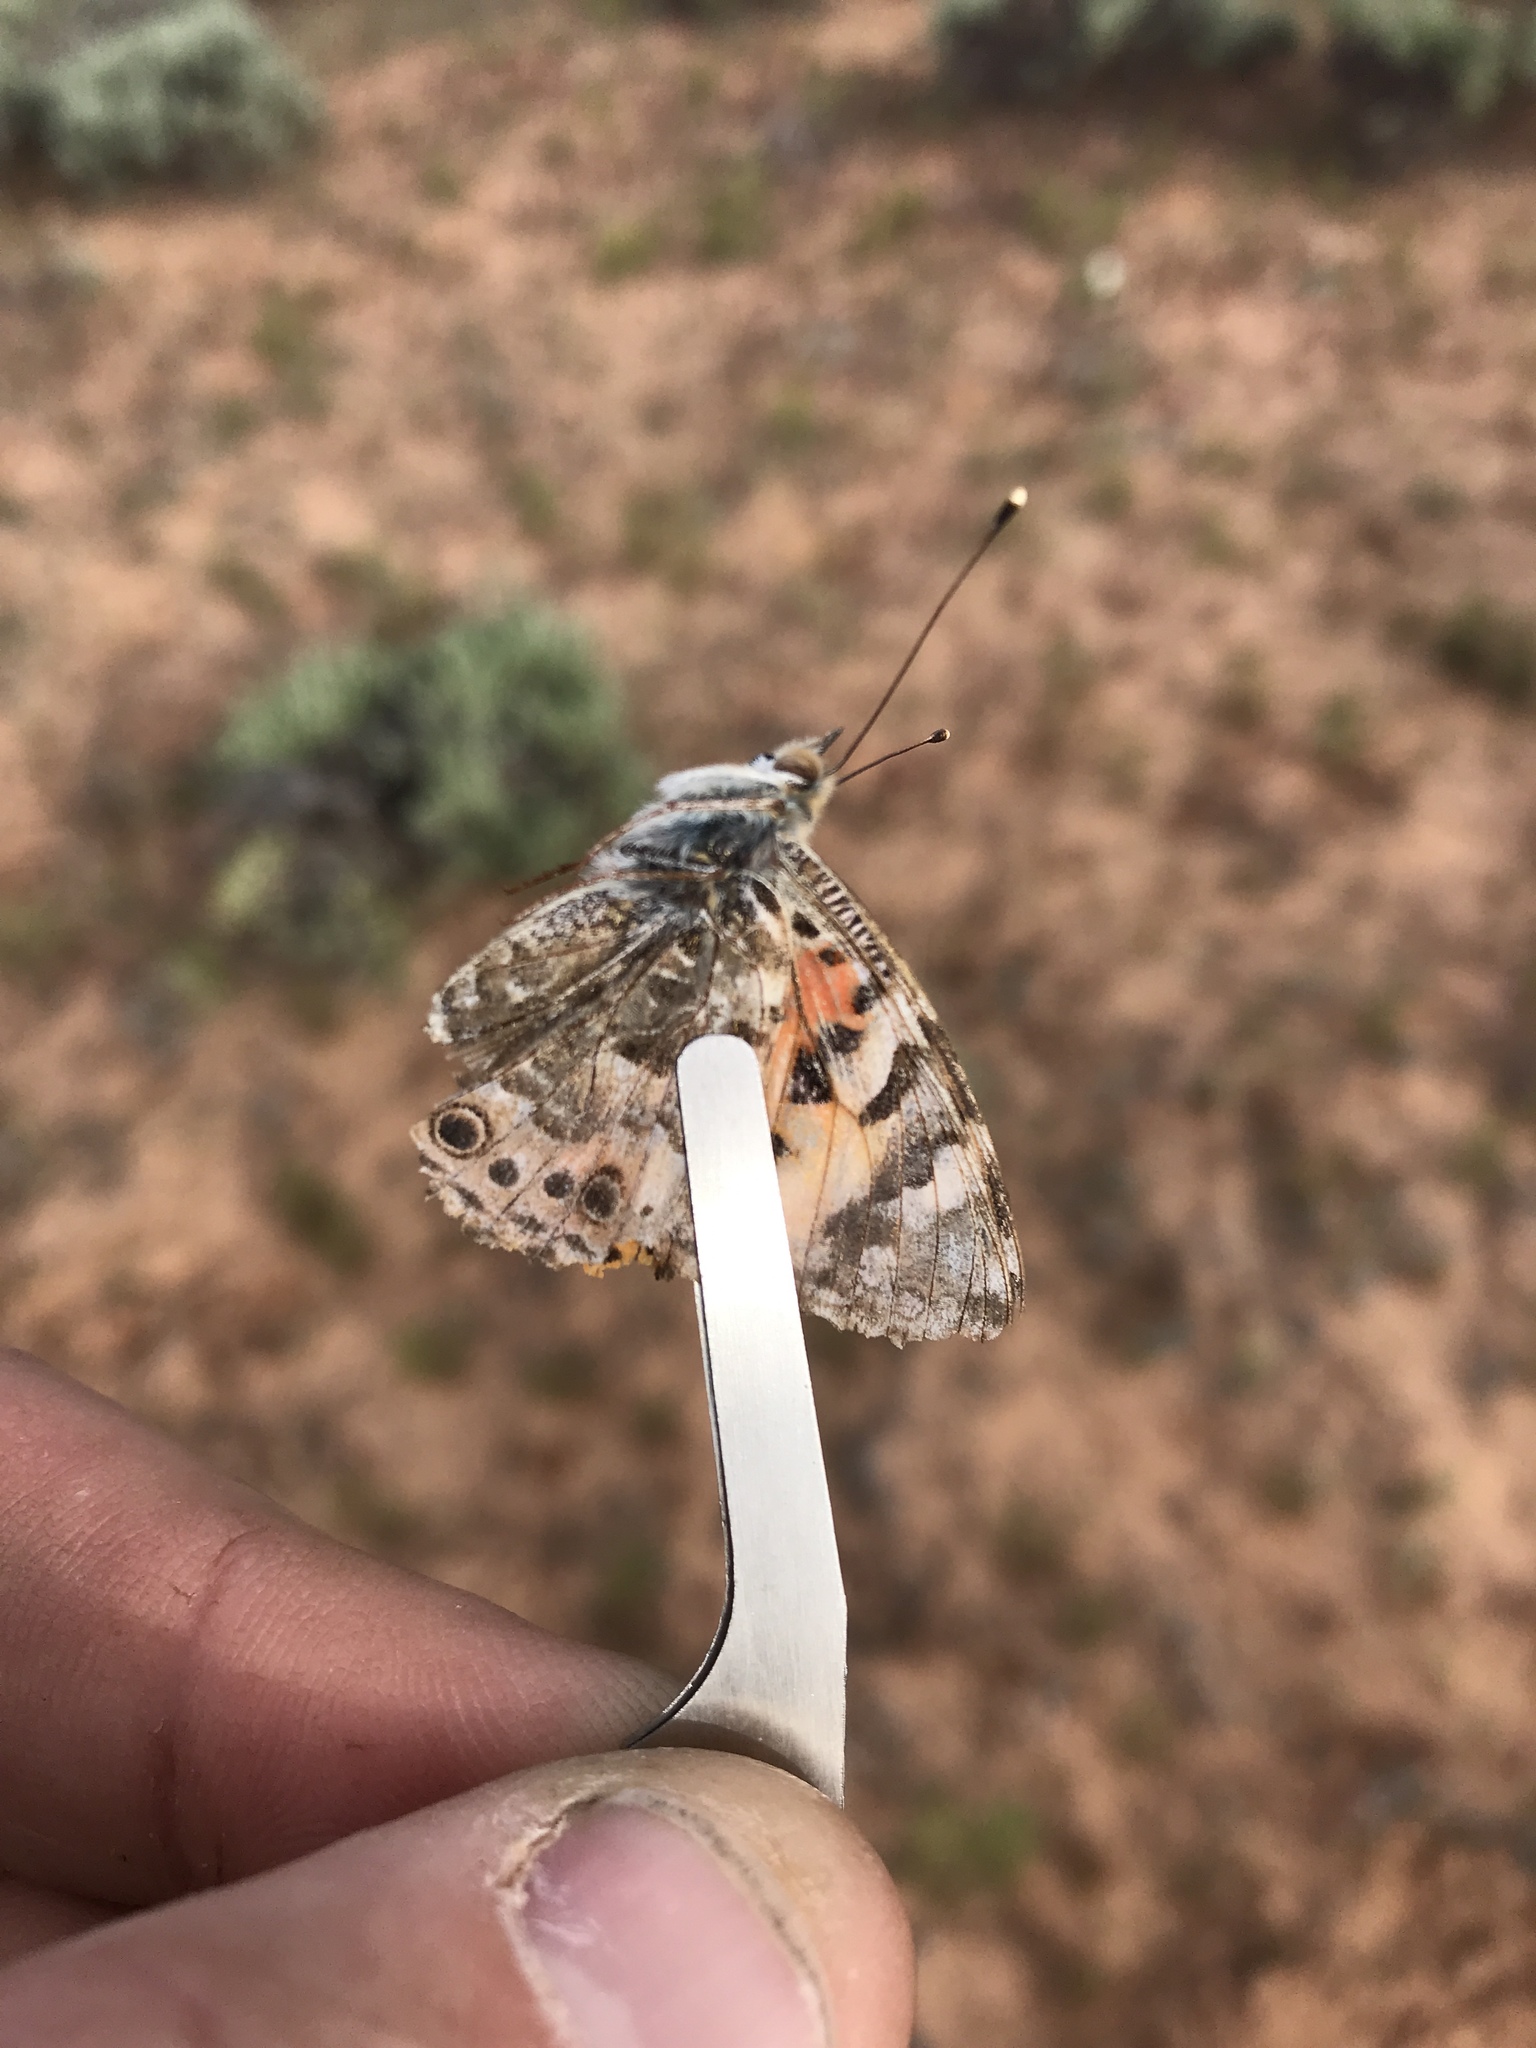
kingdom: Animalia
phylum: Arthropoda
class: Insecta
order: Lepidoptera
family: Nymphalidae
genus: Vanessa
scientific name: Vanessa cardui
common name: Painted lady
